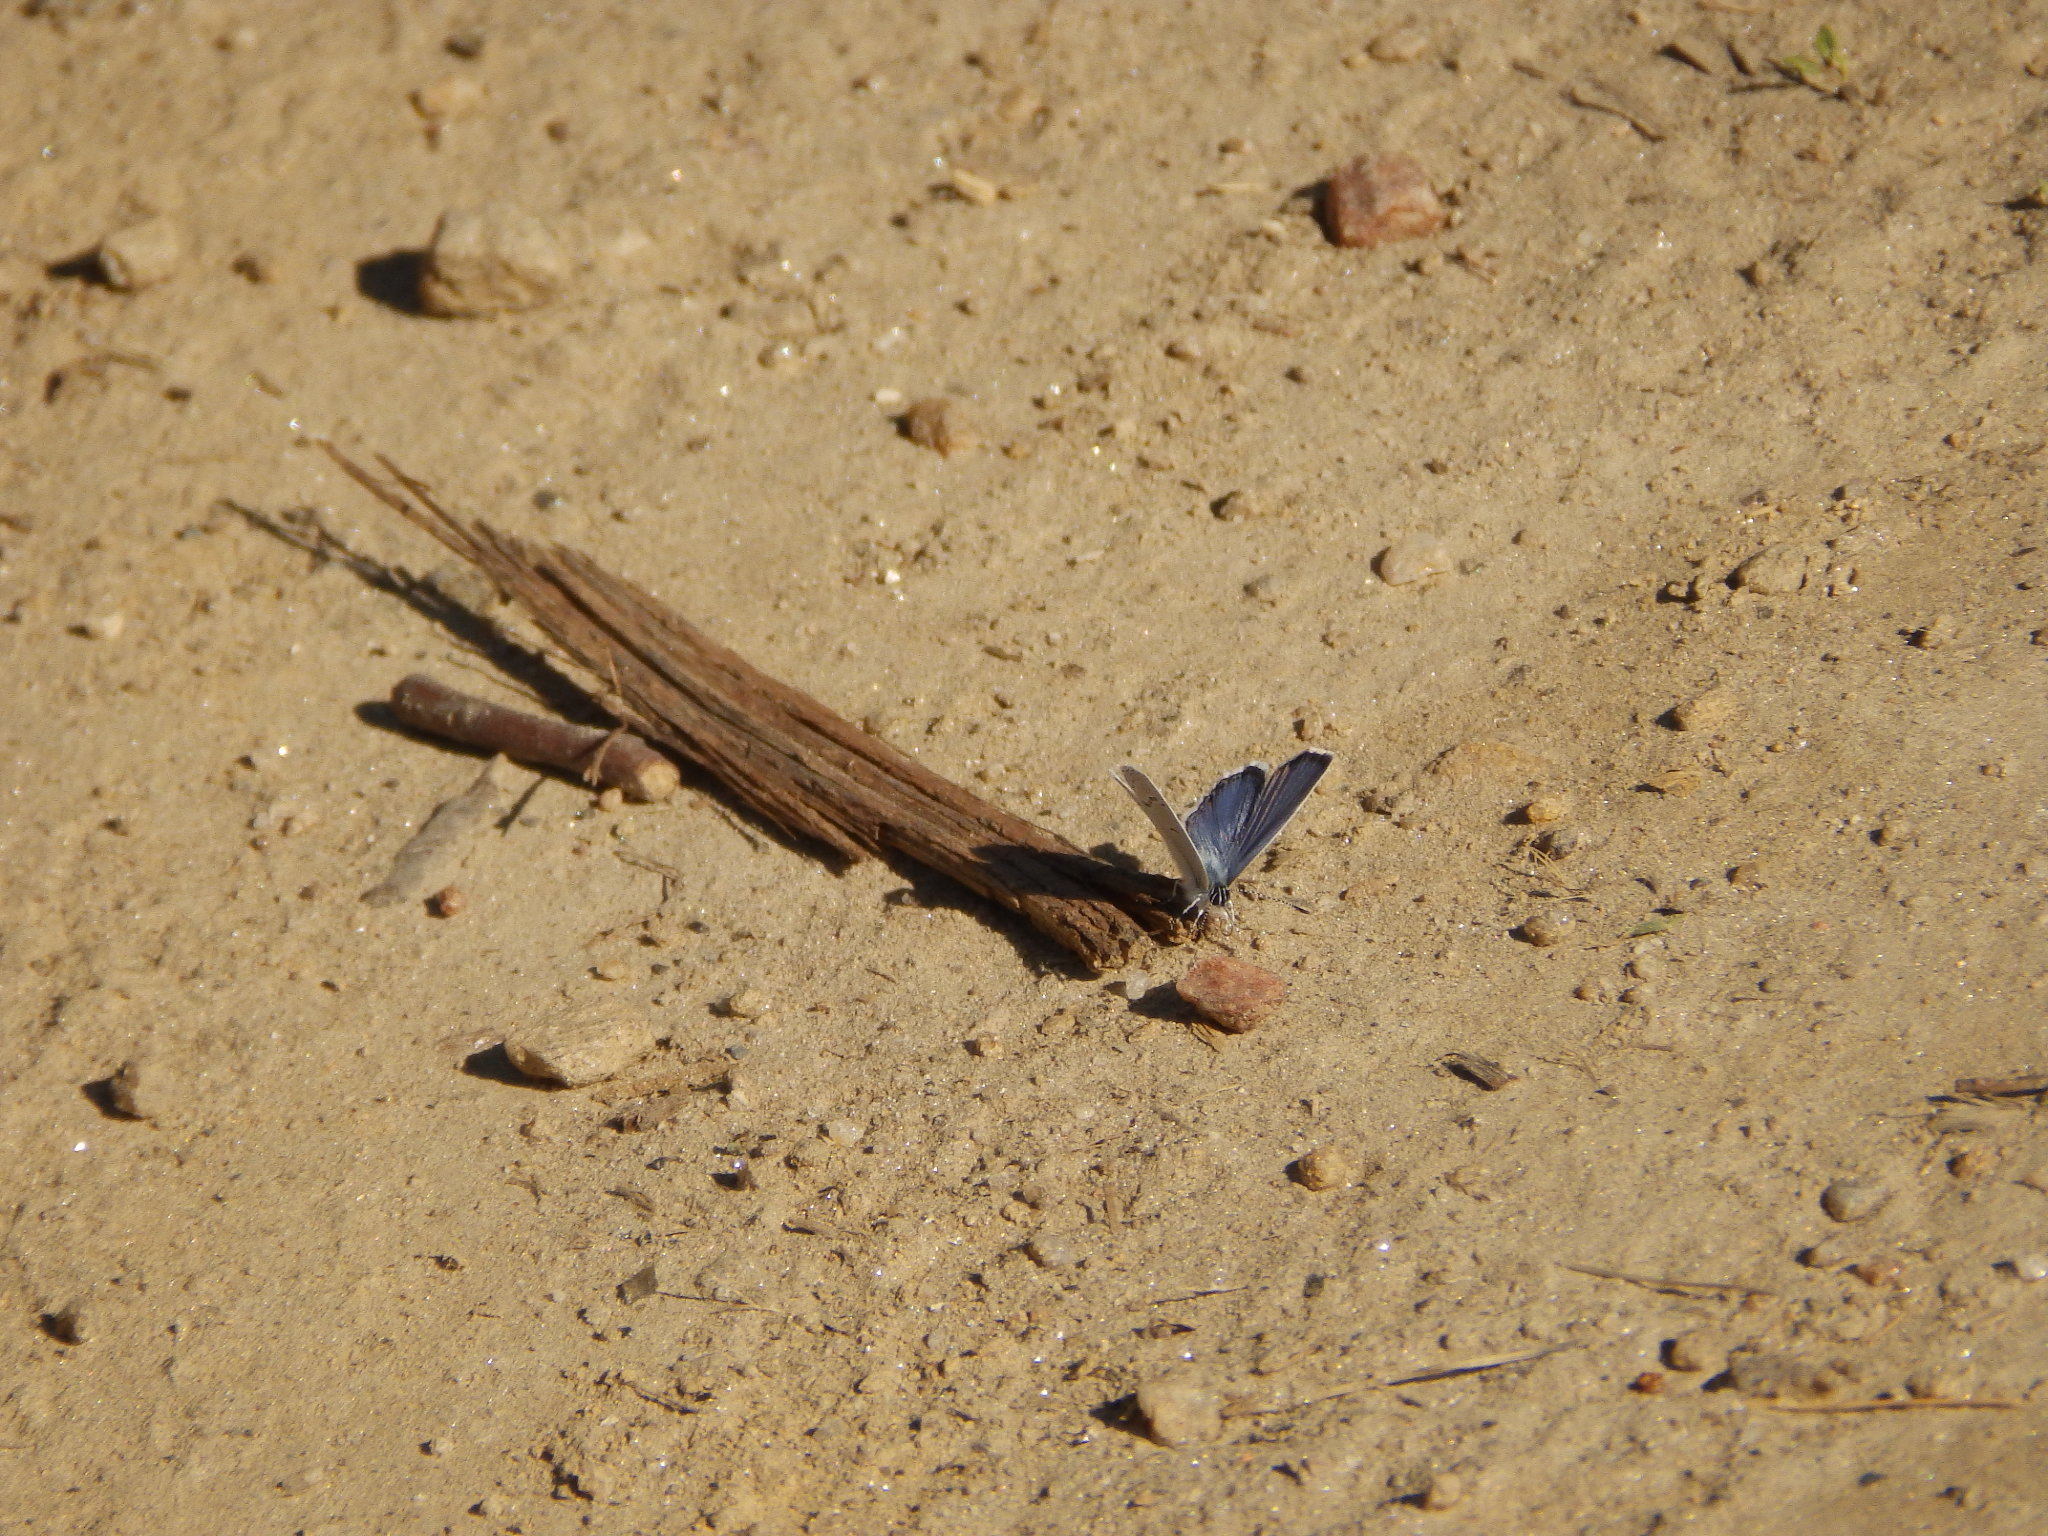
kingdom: Animalia
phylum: Arthropoda
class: Insecta
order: Lepidoptera
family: Lycaenidae
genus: Elkalyce
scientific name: Elkalyce comyntas
